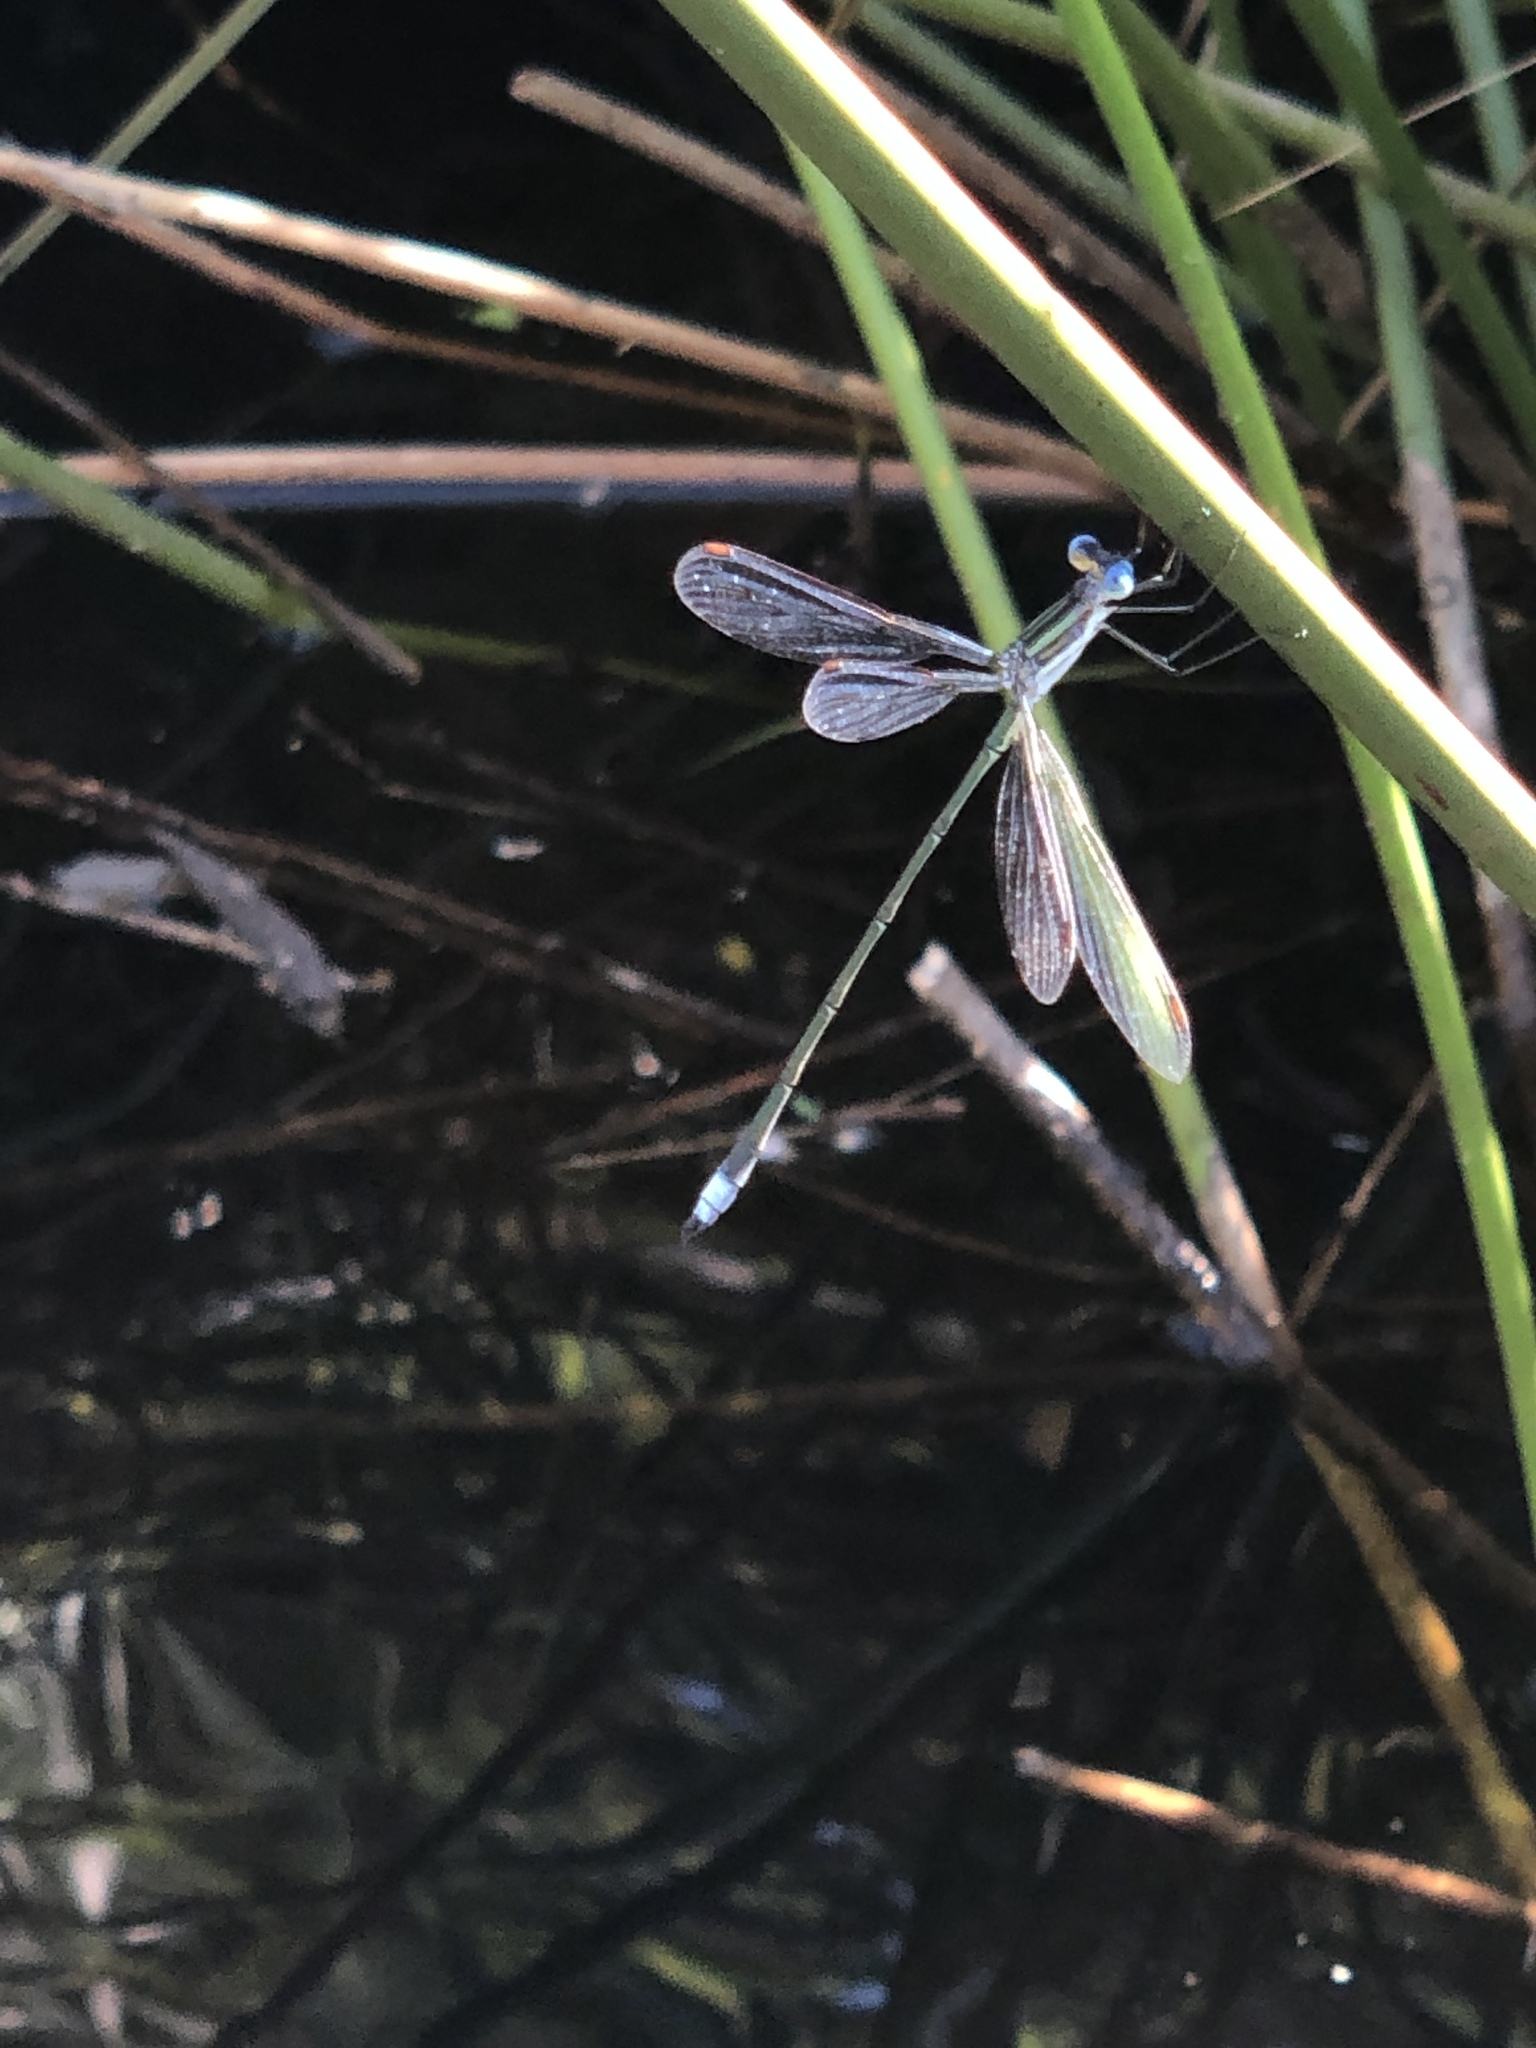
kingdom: Animalia
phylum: Arthropoda
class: Insecta
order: Odonata
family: Lestidae
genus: Lestes
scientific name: Lestes plagiatus
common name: Highland spreadwing
